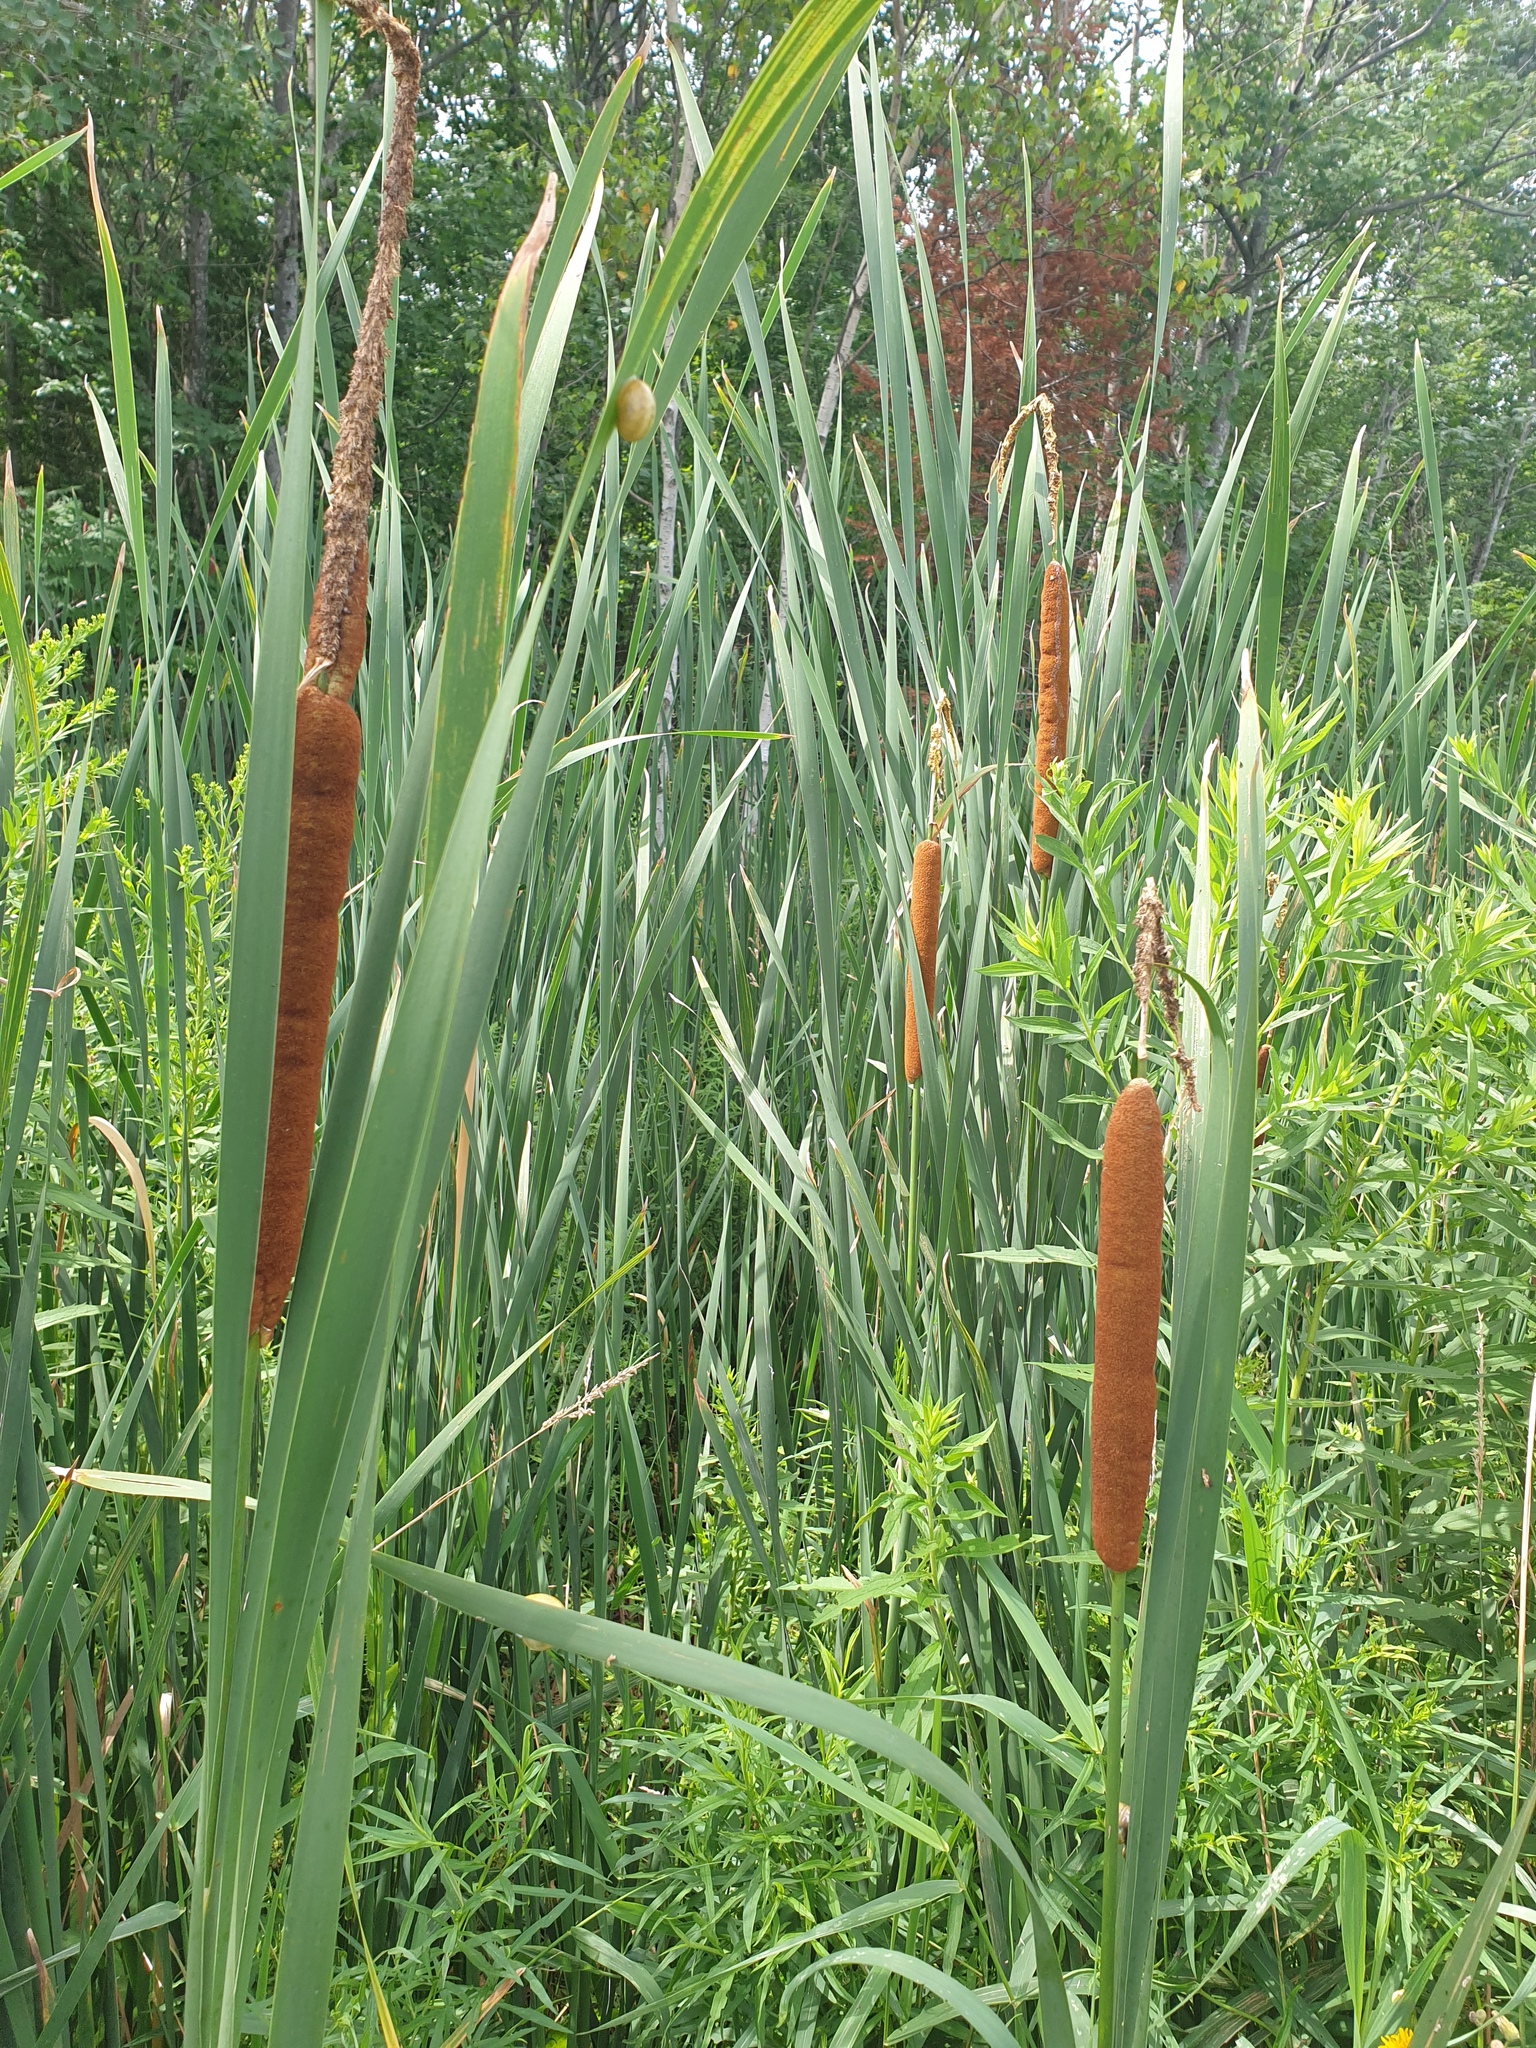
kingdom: Plantae
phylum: Tracheophyta
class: Liliopsida
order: Poales
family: Typhaceae
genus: Typha
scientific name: Typha glauca
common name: Blue cattail
